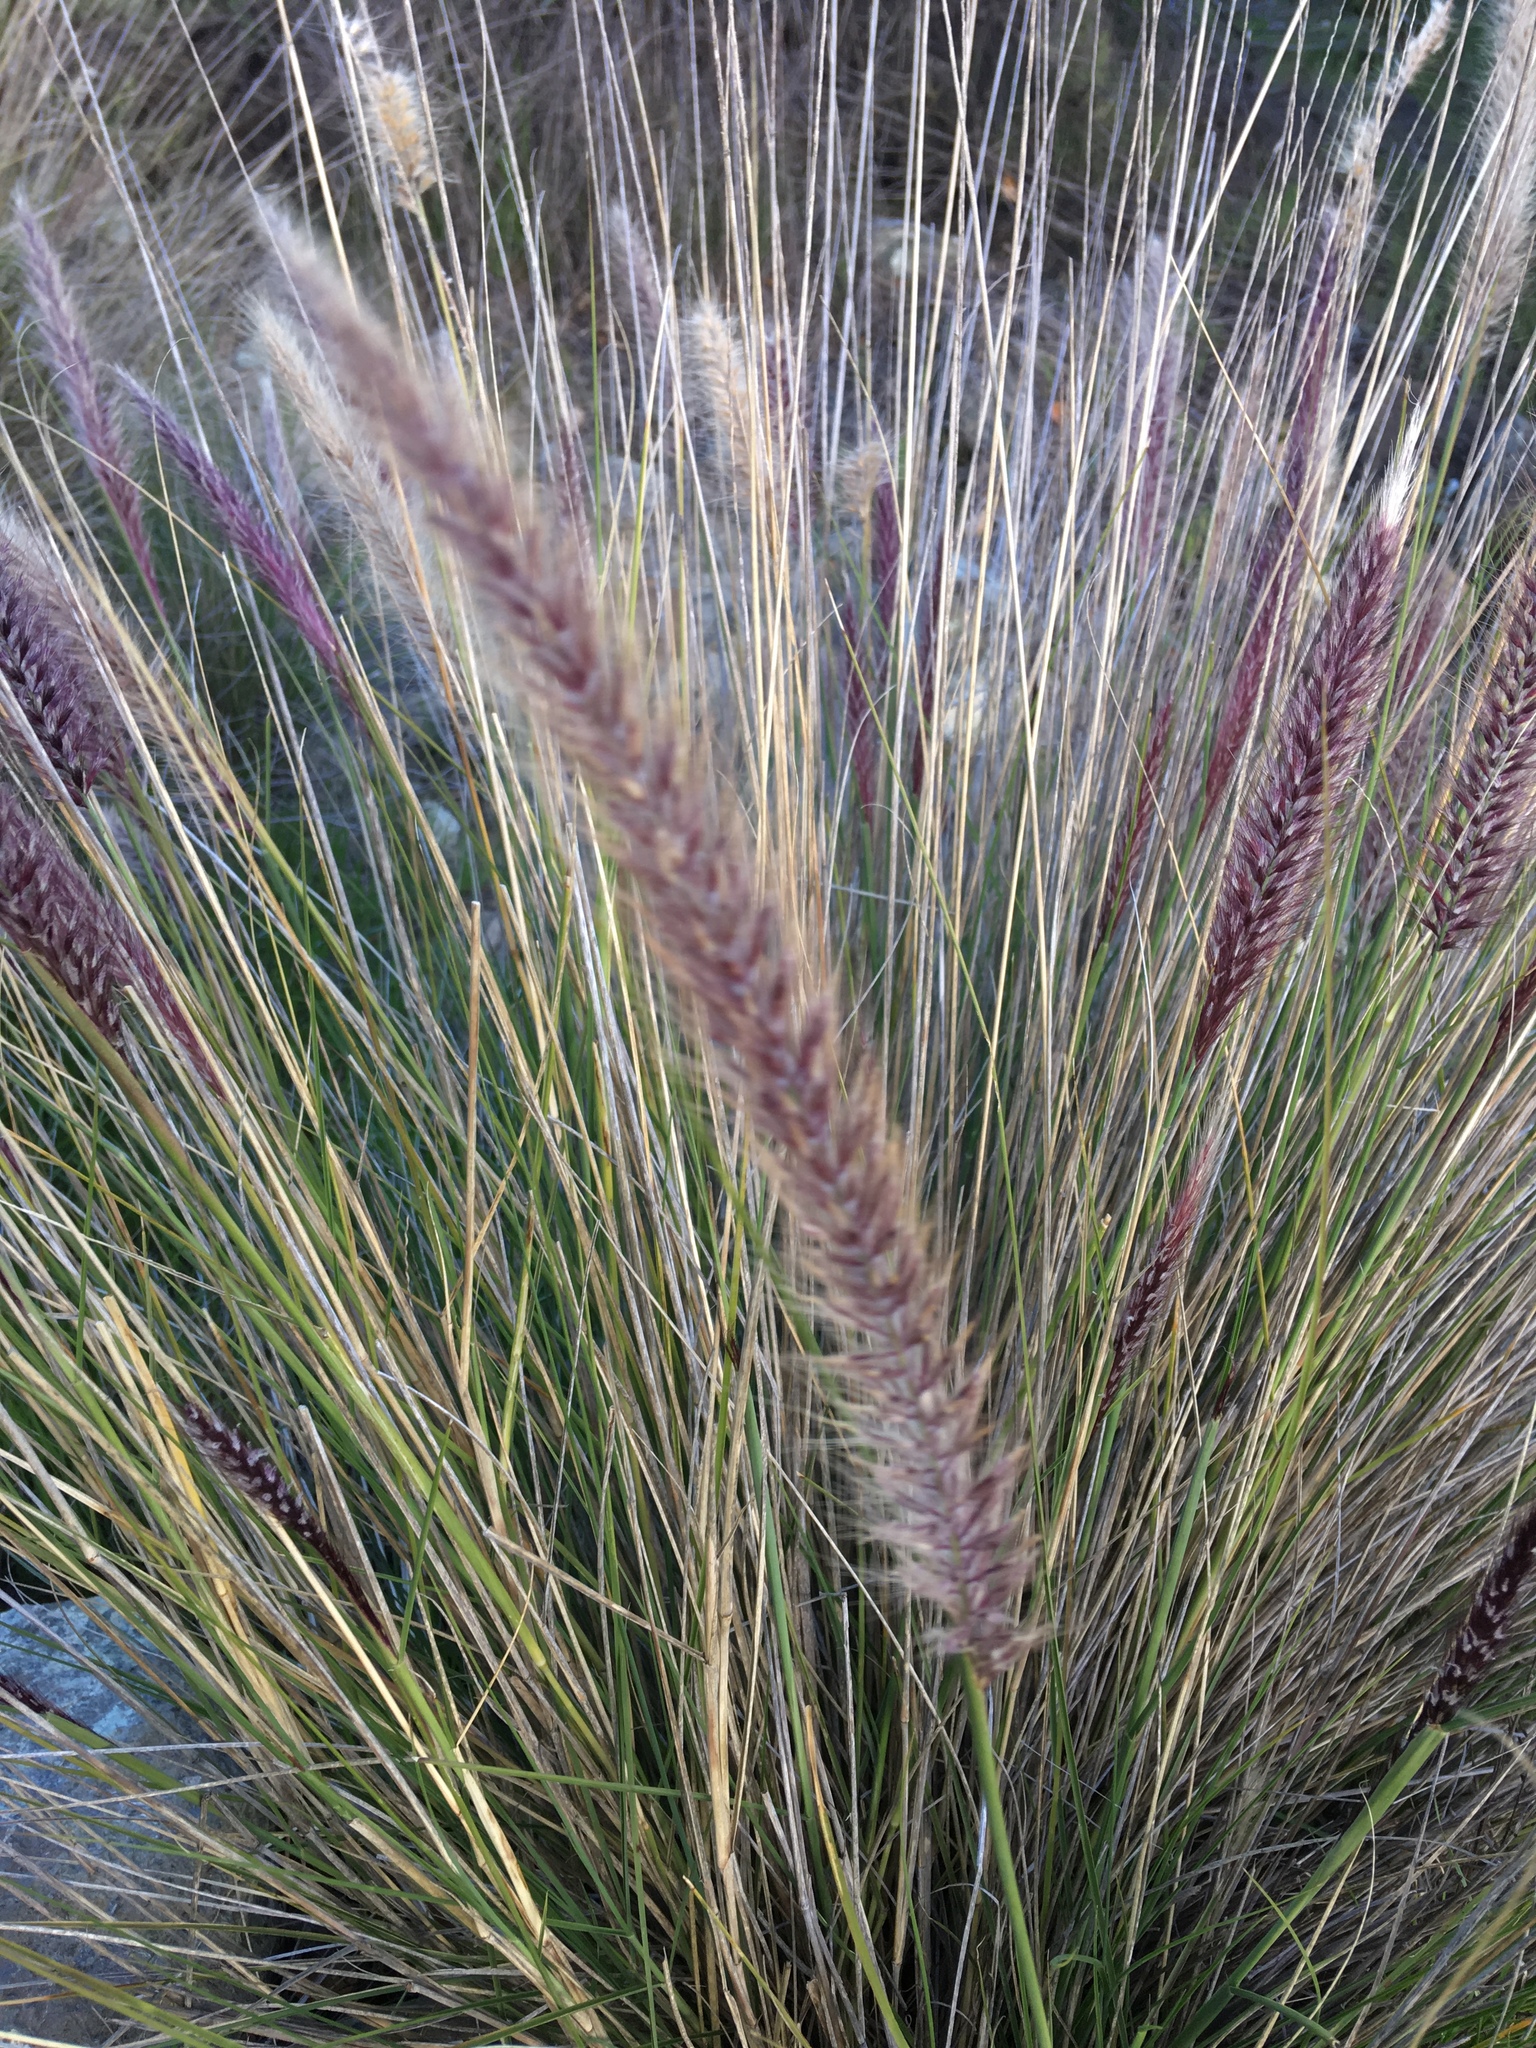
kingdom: Plantae
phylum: Tracheophyta
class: Liliopsida
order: Poales
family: Poaceae
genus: Cenchrus
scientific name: Cenchrus setaceus
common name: Crimson fountaingrass
